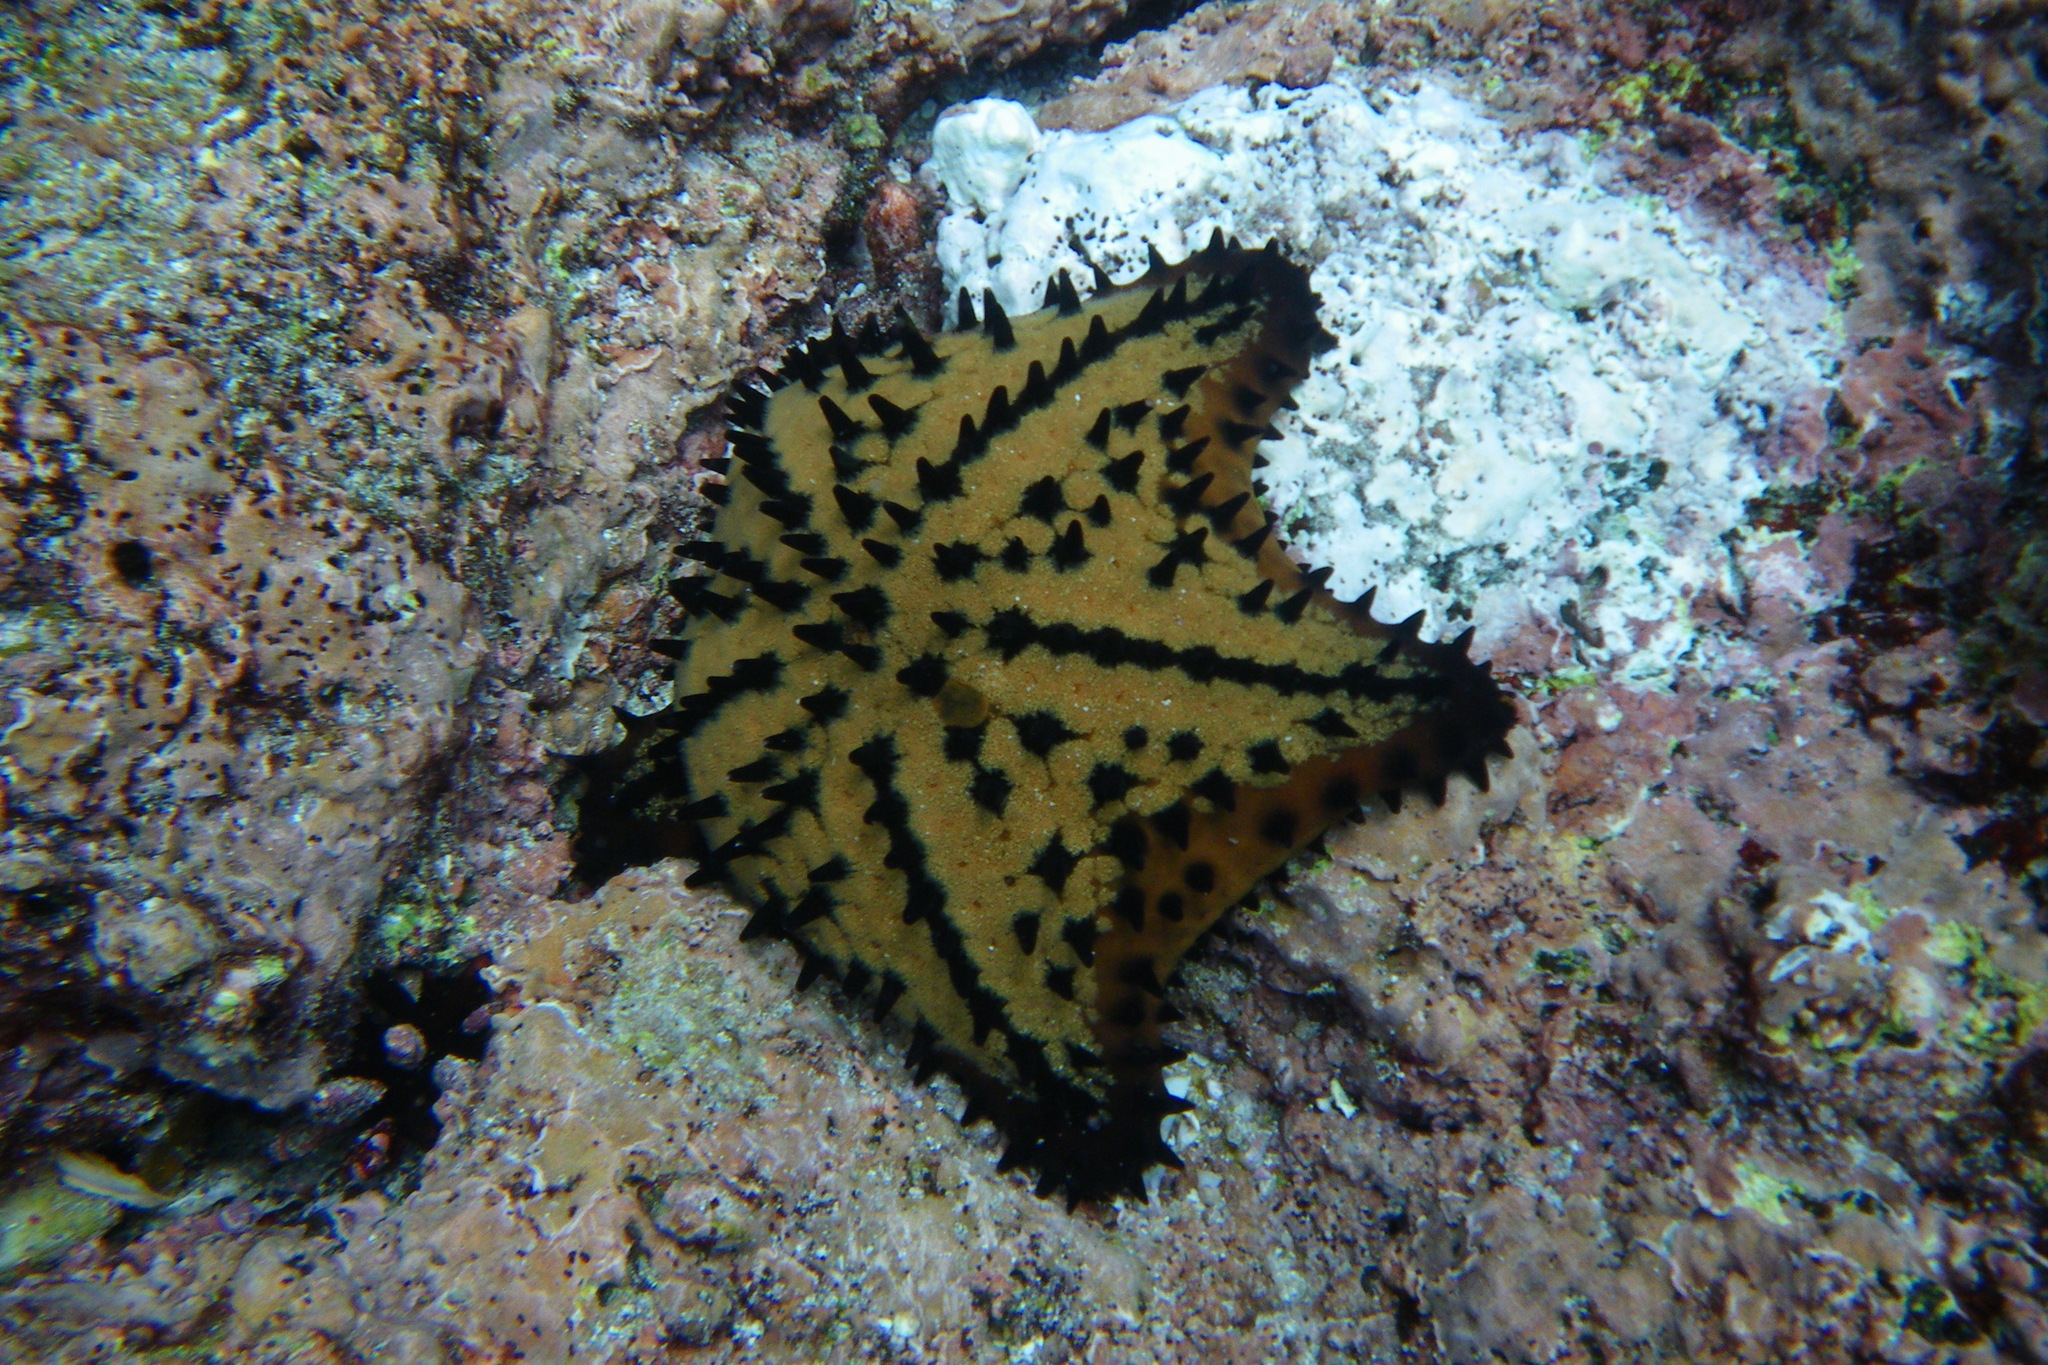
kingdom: Animalia
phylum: Echinodermata
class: Asteroidea
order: Valvatida
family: Oreasteridae
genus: Nidorellia
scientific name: Nidorellia armata
